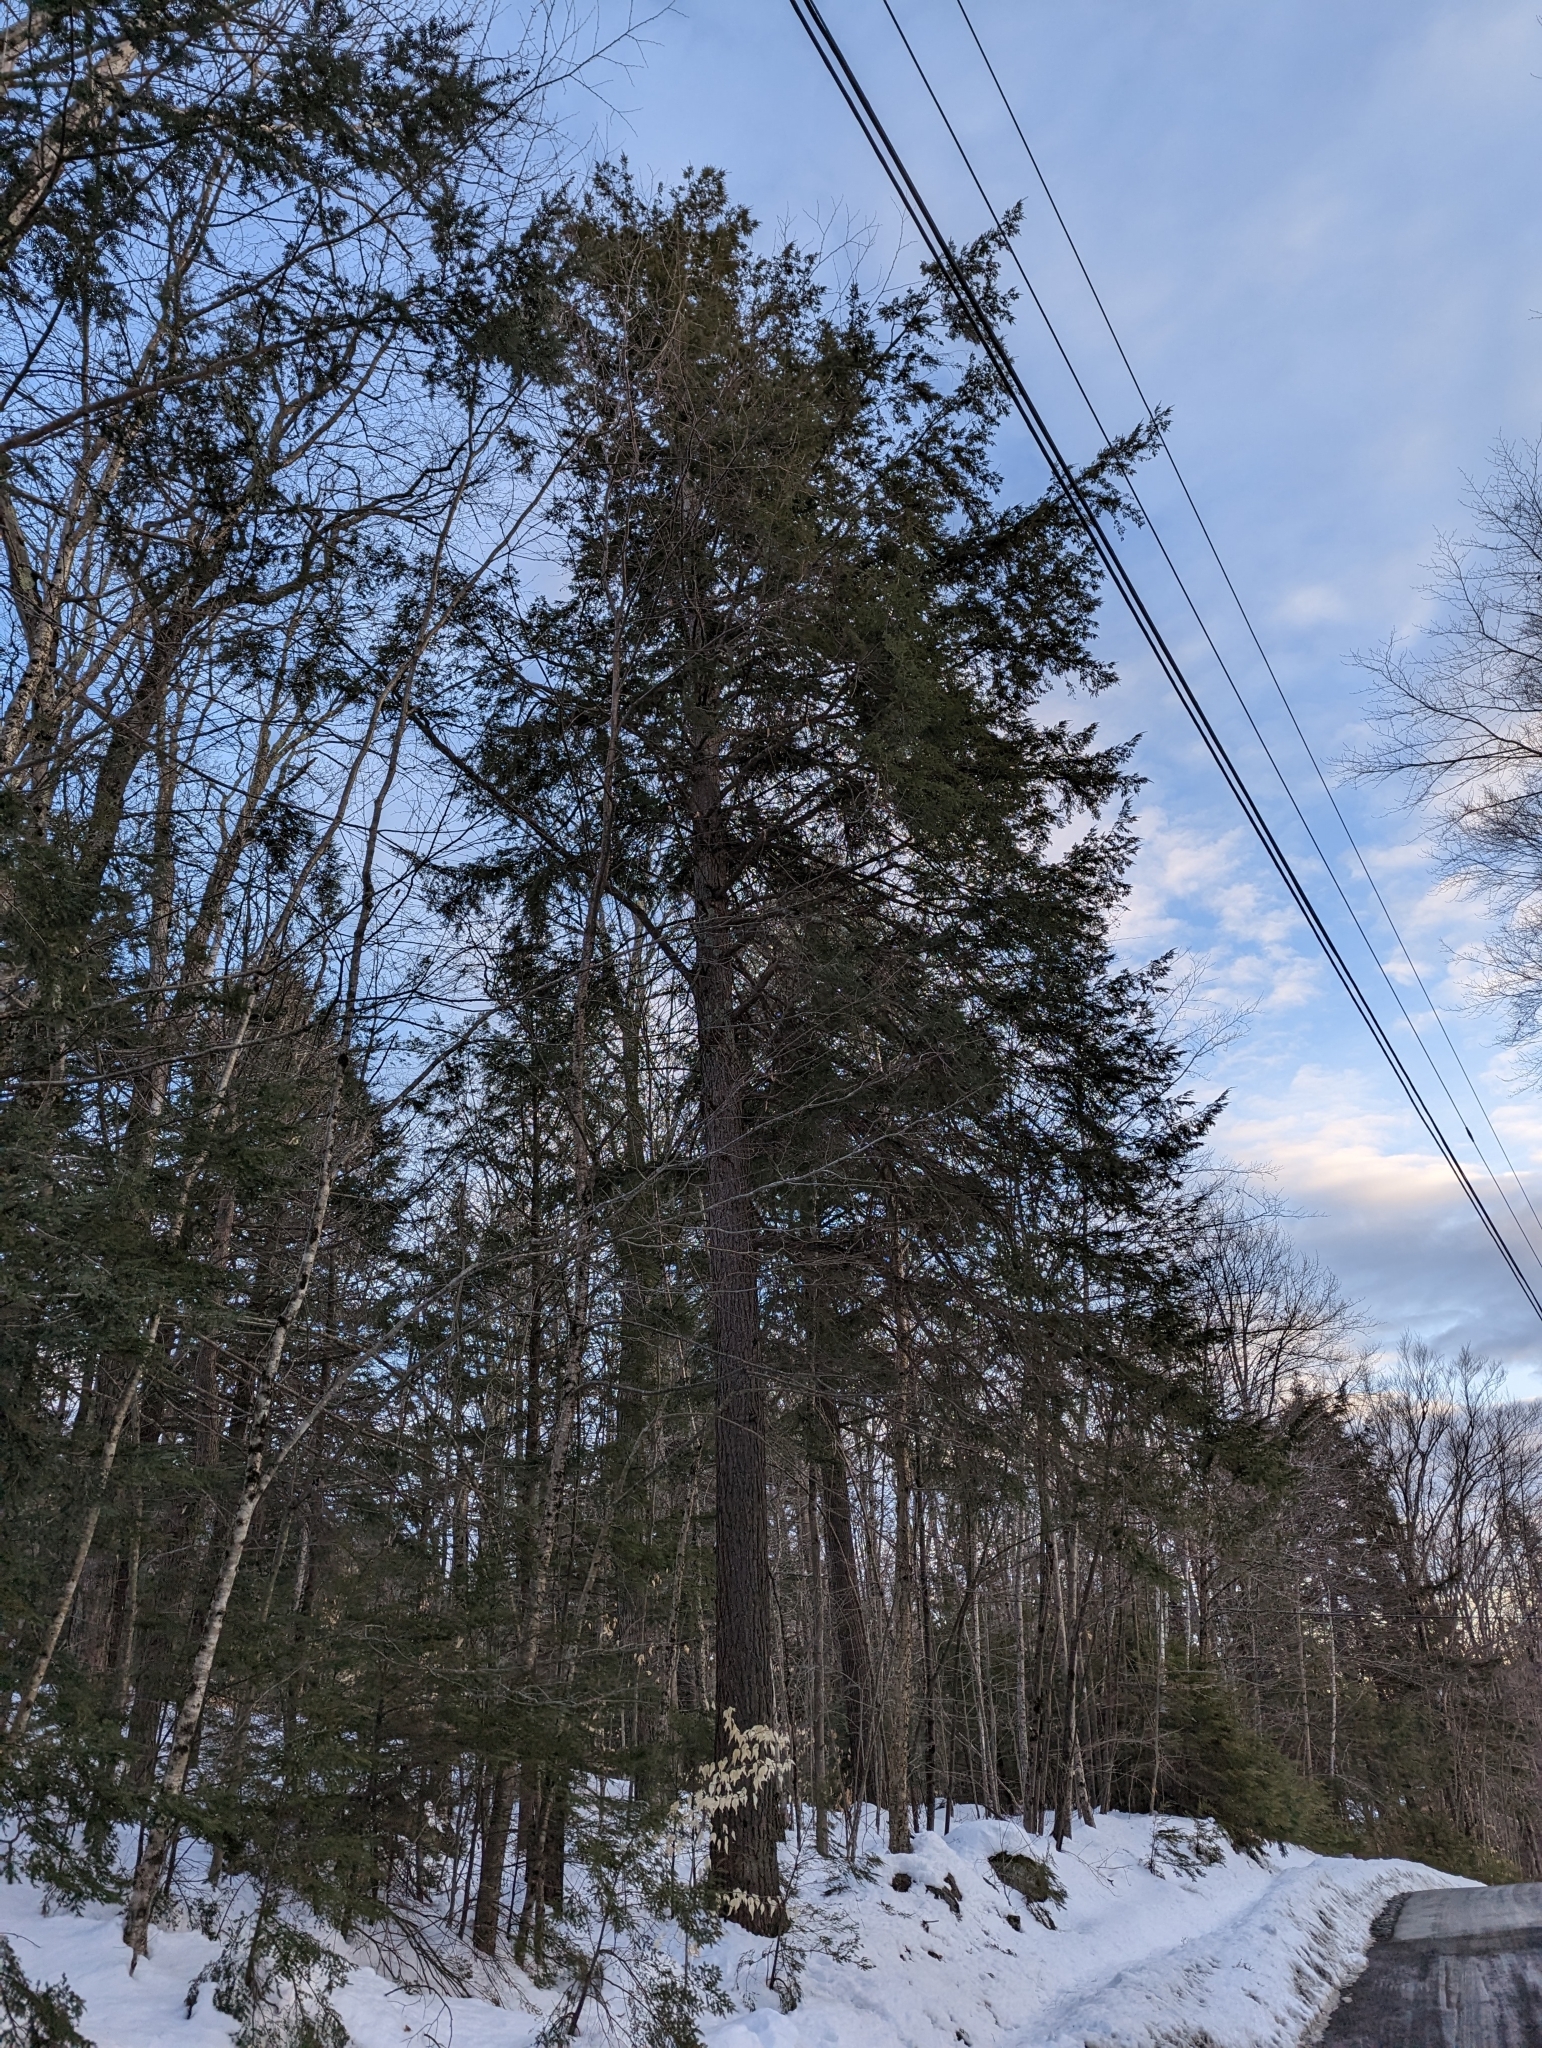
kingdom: Plantae
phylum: Tracheophyta
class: Pinopsida
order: Pinales
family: Pinaceae
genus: Tsuga
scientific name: Tsuga canadensis
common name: Eastern hemlock
